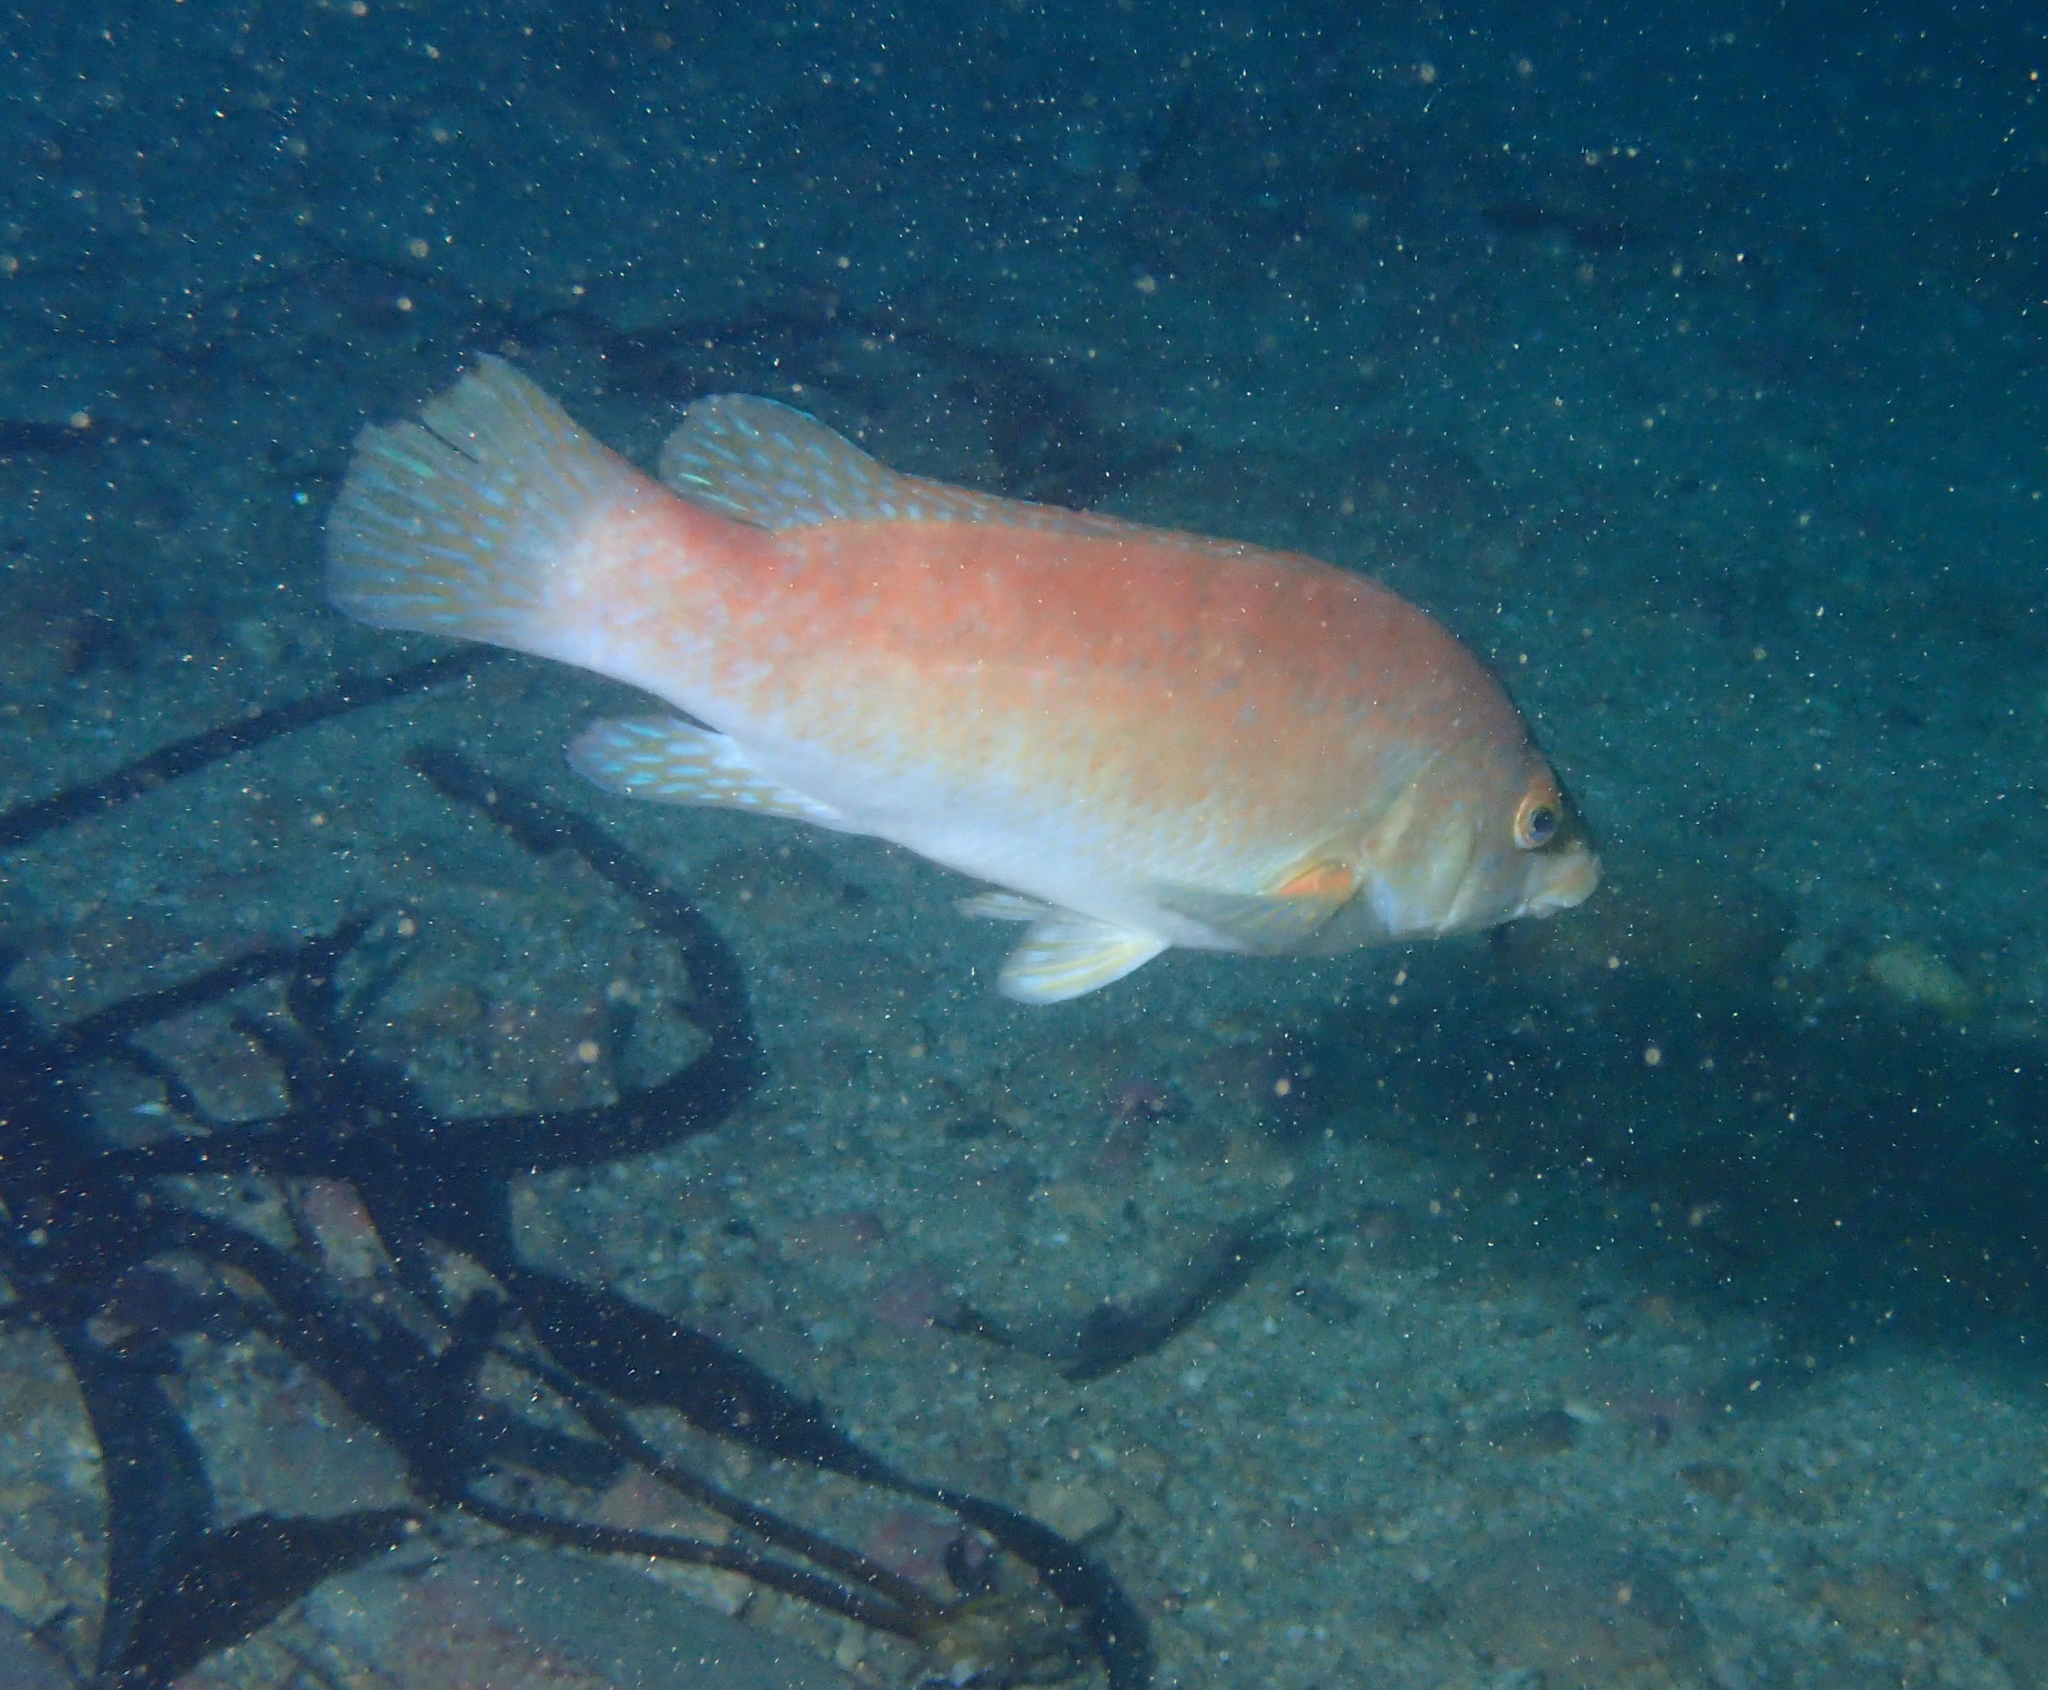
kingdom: Animalia
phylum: Chordata
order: Perciformes
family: Labridae
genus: Labrus
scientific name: Labrus bergylta
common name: Ballan wrasse
